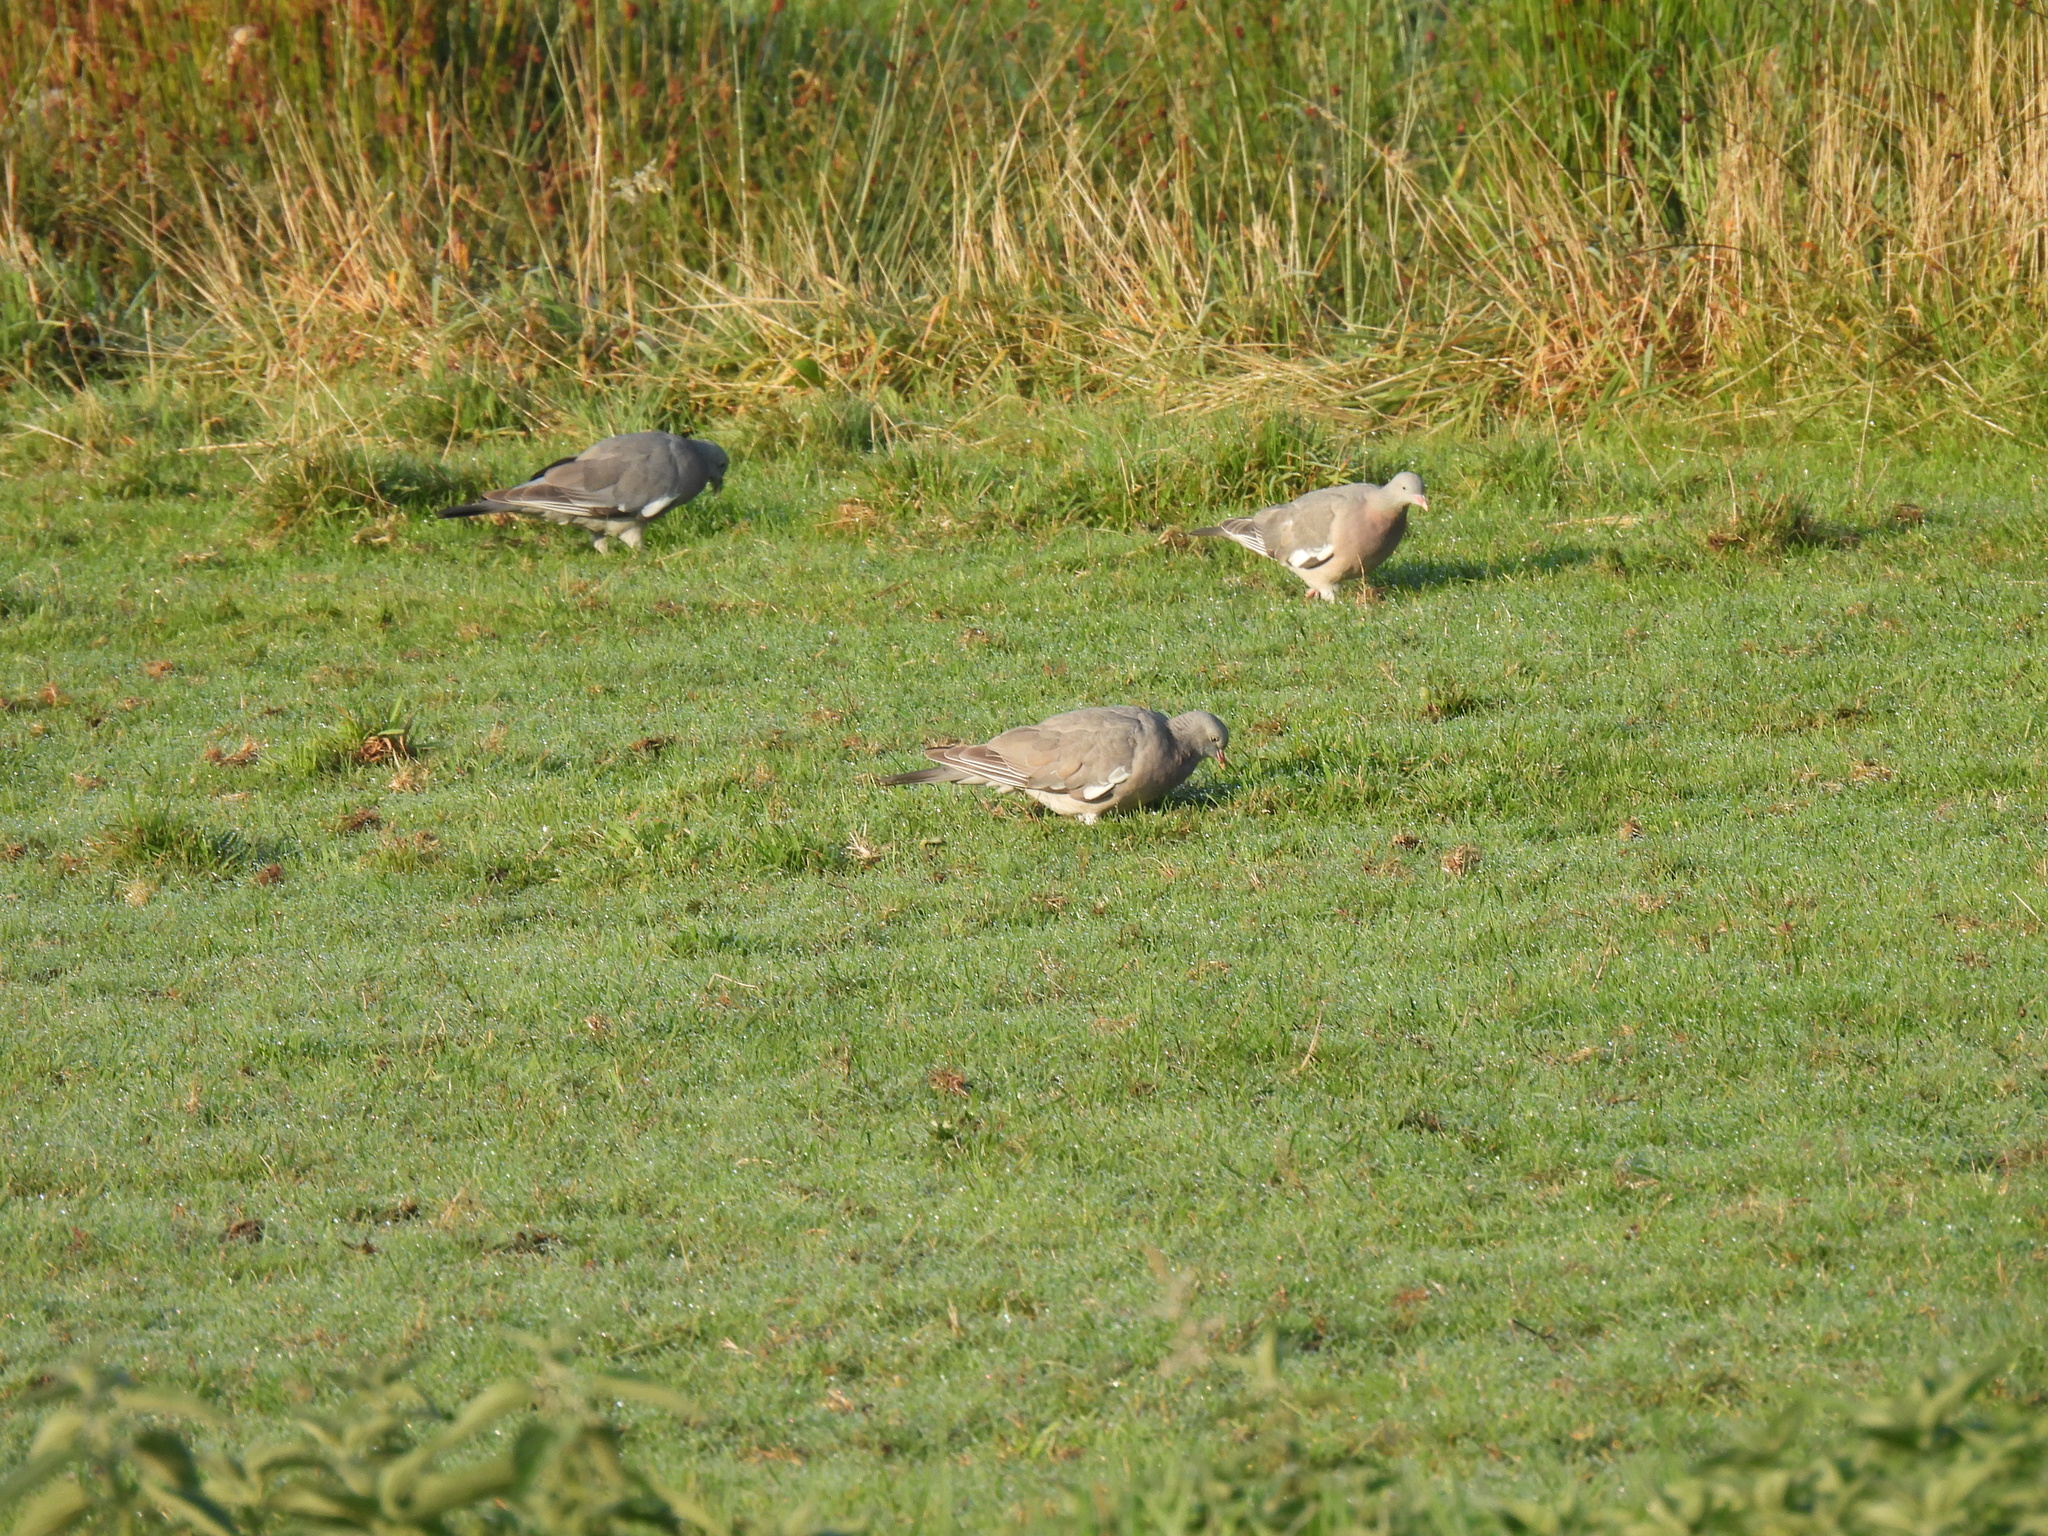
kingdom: Animalia
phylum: Chordata
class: Aves
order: Columbiformes
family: Columbidae
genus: Columba
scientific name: Columba palumbus
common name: Common wood pigeon
